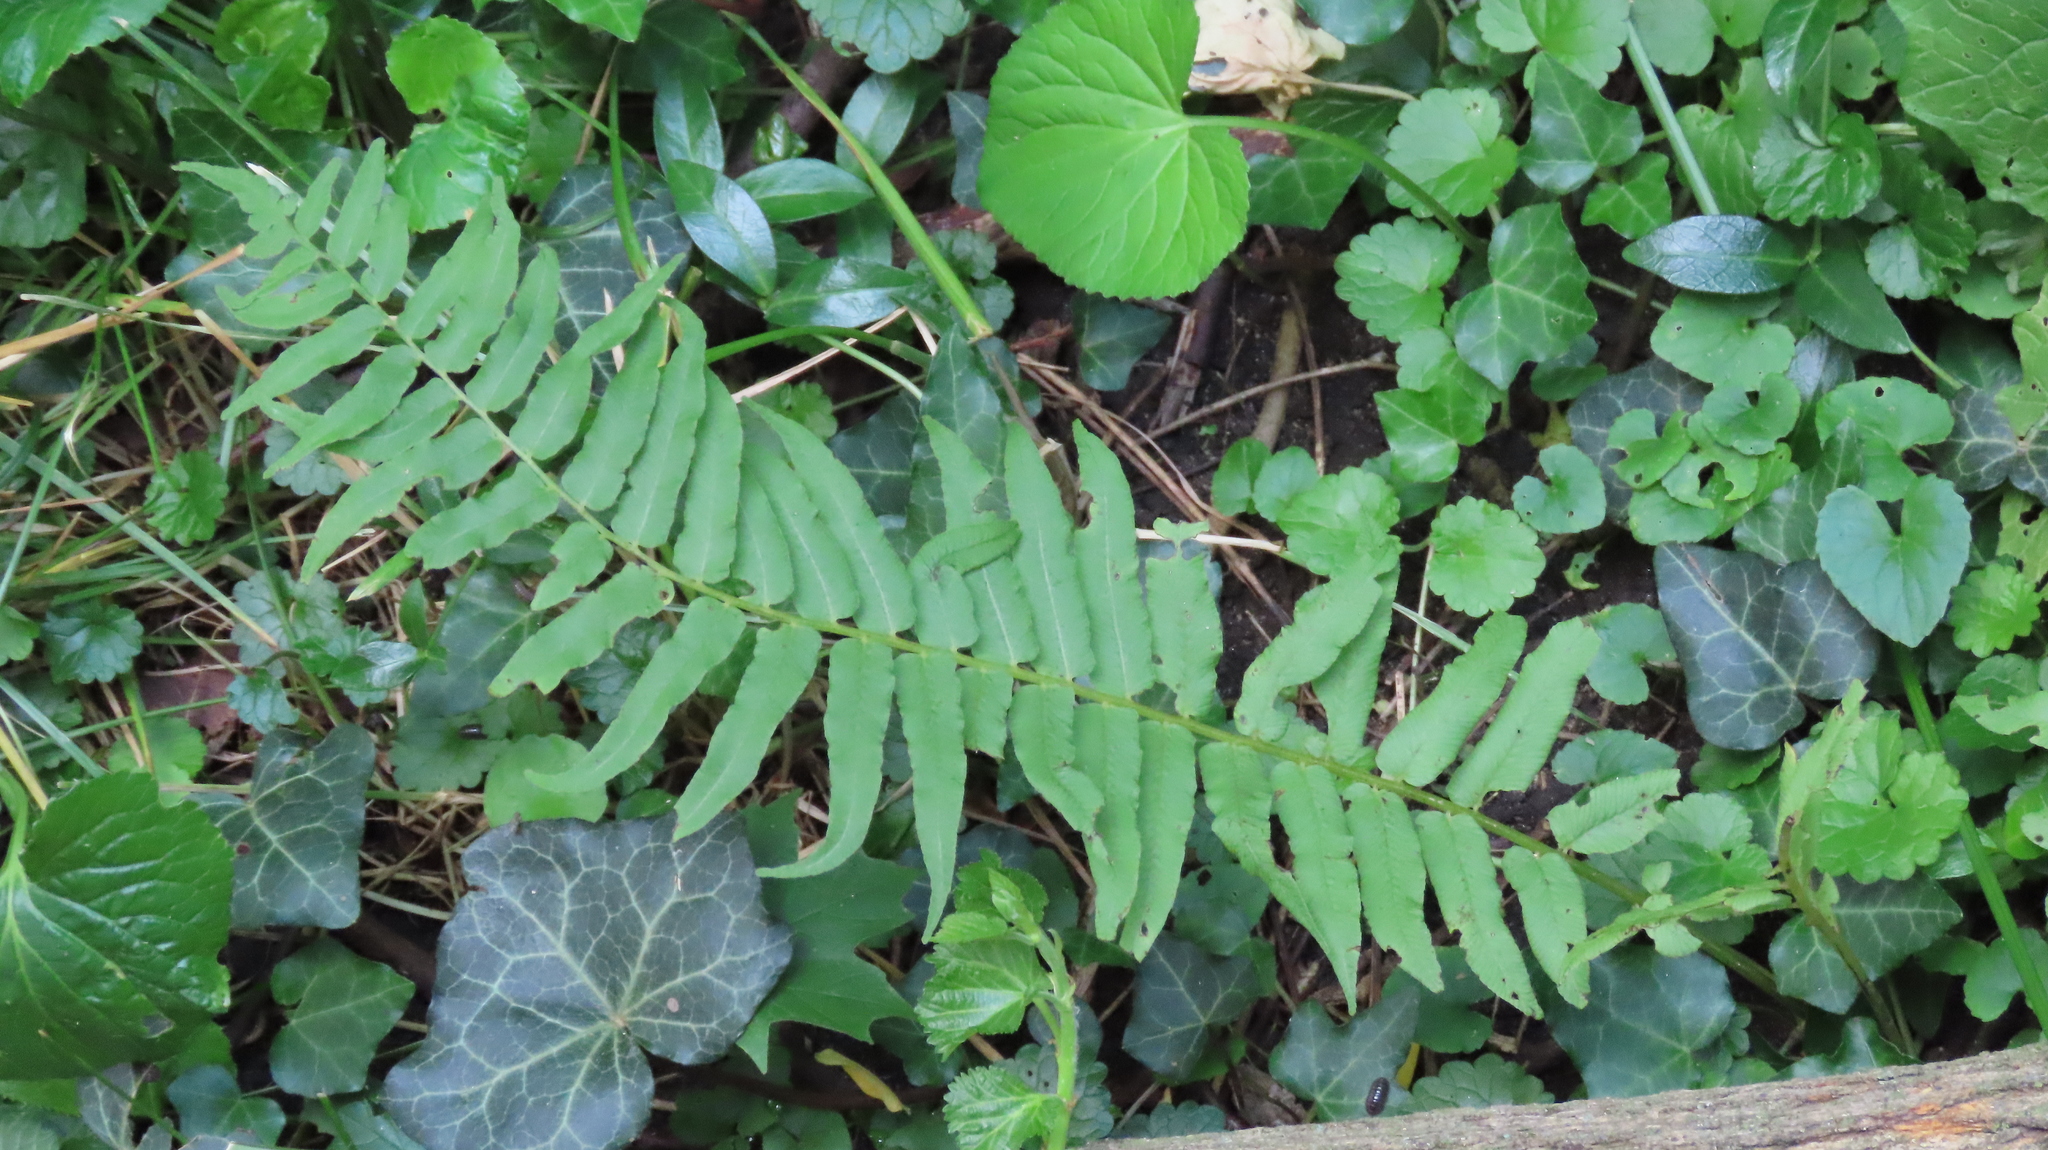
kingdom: Plantae
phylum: Tracheophyta
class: Polypodiopsida
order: Polypodiales
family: Diplaziopsidaceae
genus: Homalosorus
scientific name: Homalosorus pycnocarpos
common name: Glade fern
